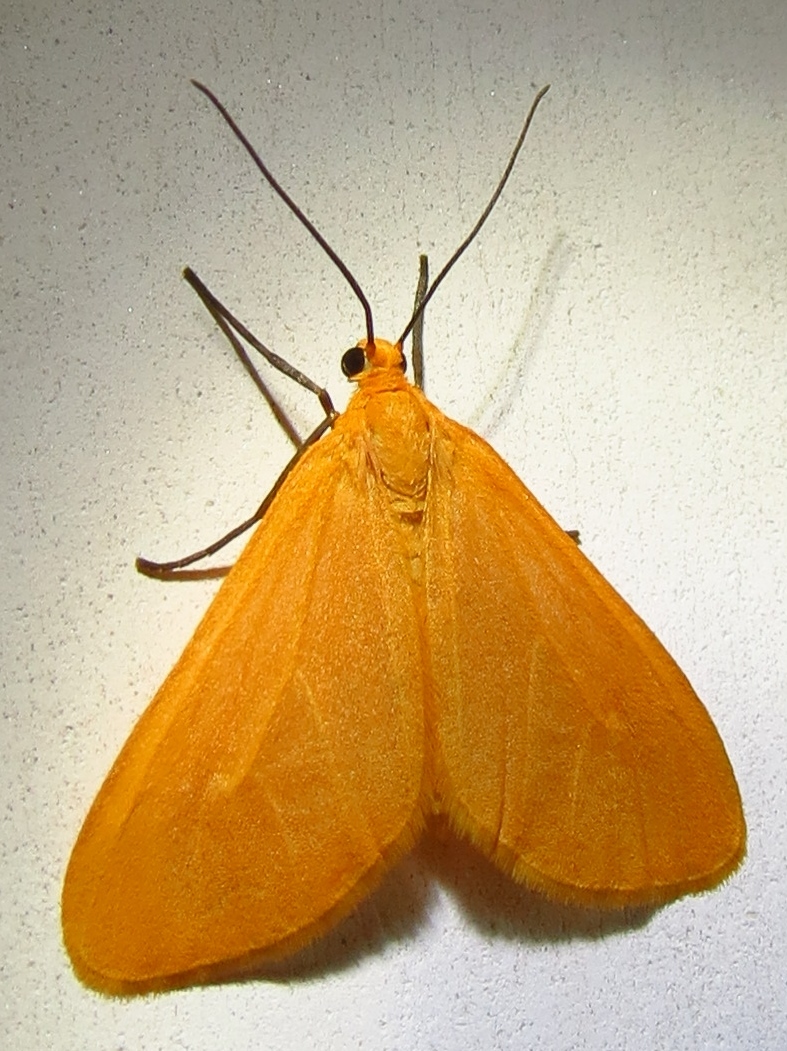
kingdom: Animalia
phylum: Arthropoda
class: Insecta
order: Lepidoptera
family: Geometridae
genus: Eubaphe
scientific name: Eubaphe unicolor
